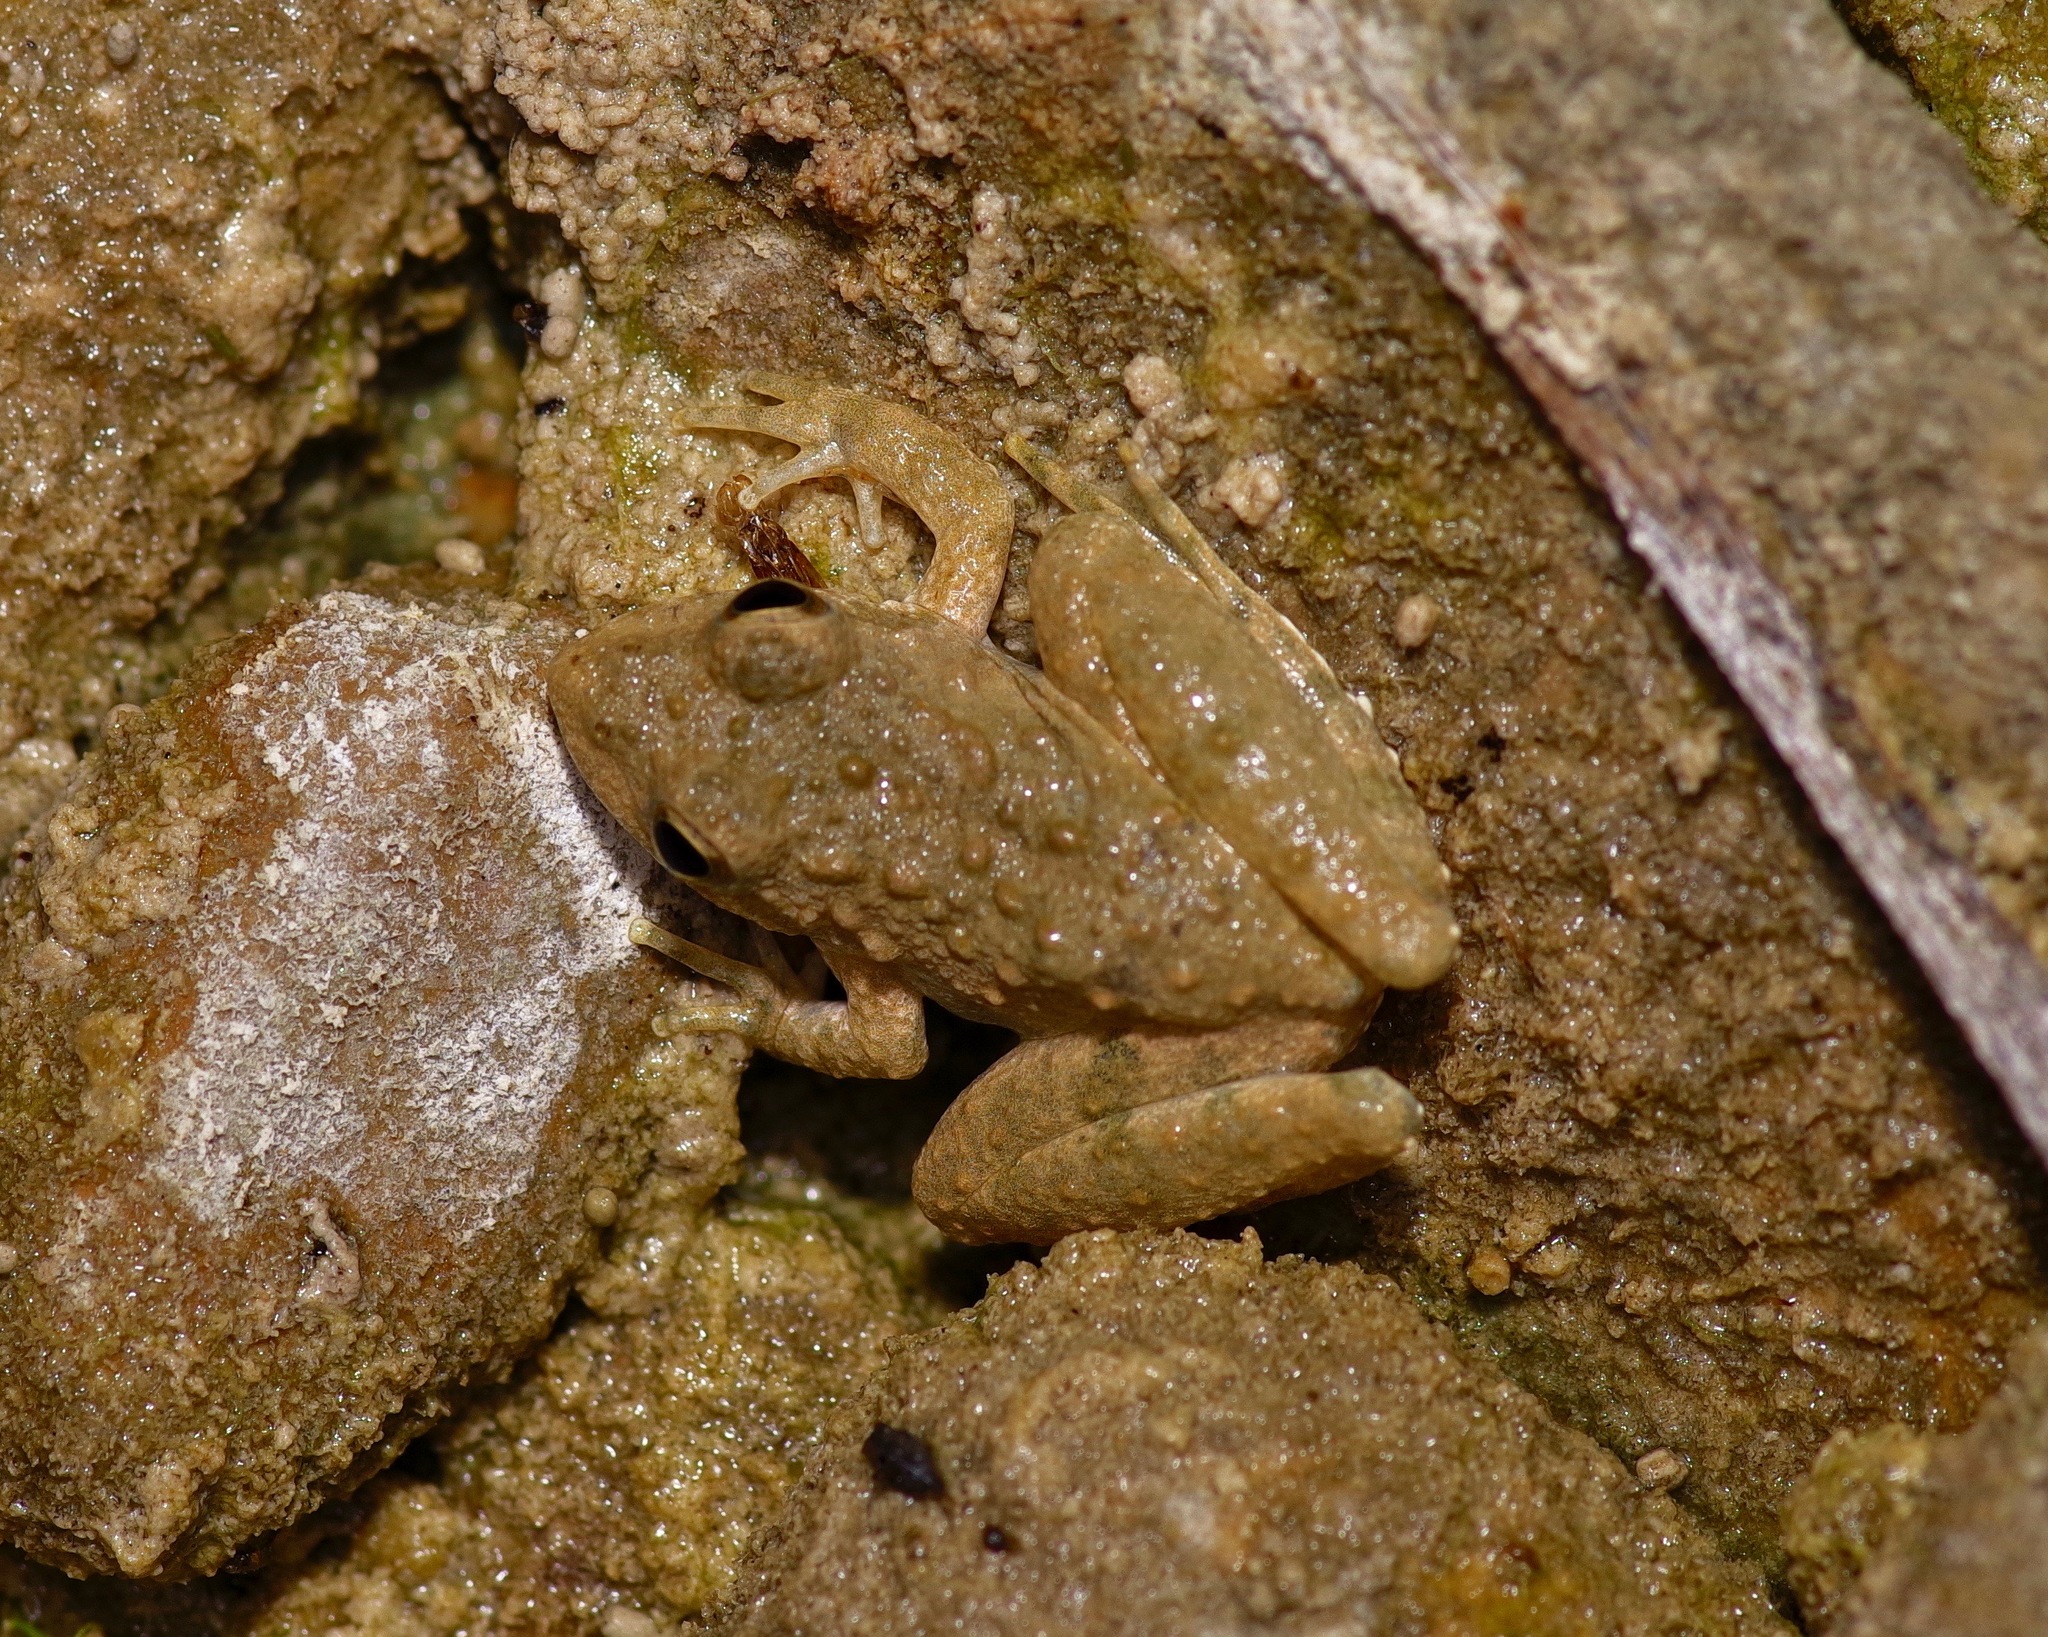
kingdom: Animalia
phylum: Chordata
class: Amphibia
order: Anura
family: Hylidae
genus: Acris
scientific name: Acris blanchardi
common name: Blanchard's cricket frog
